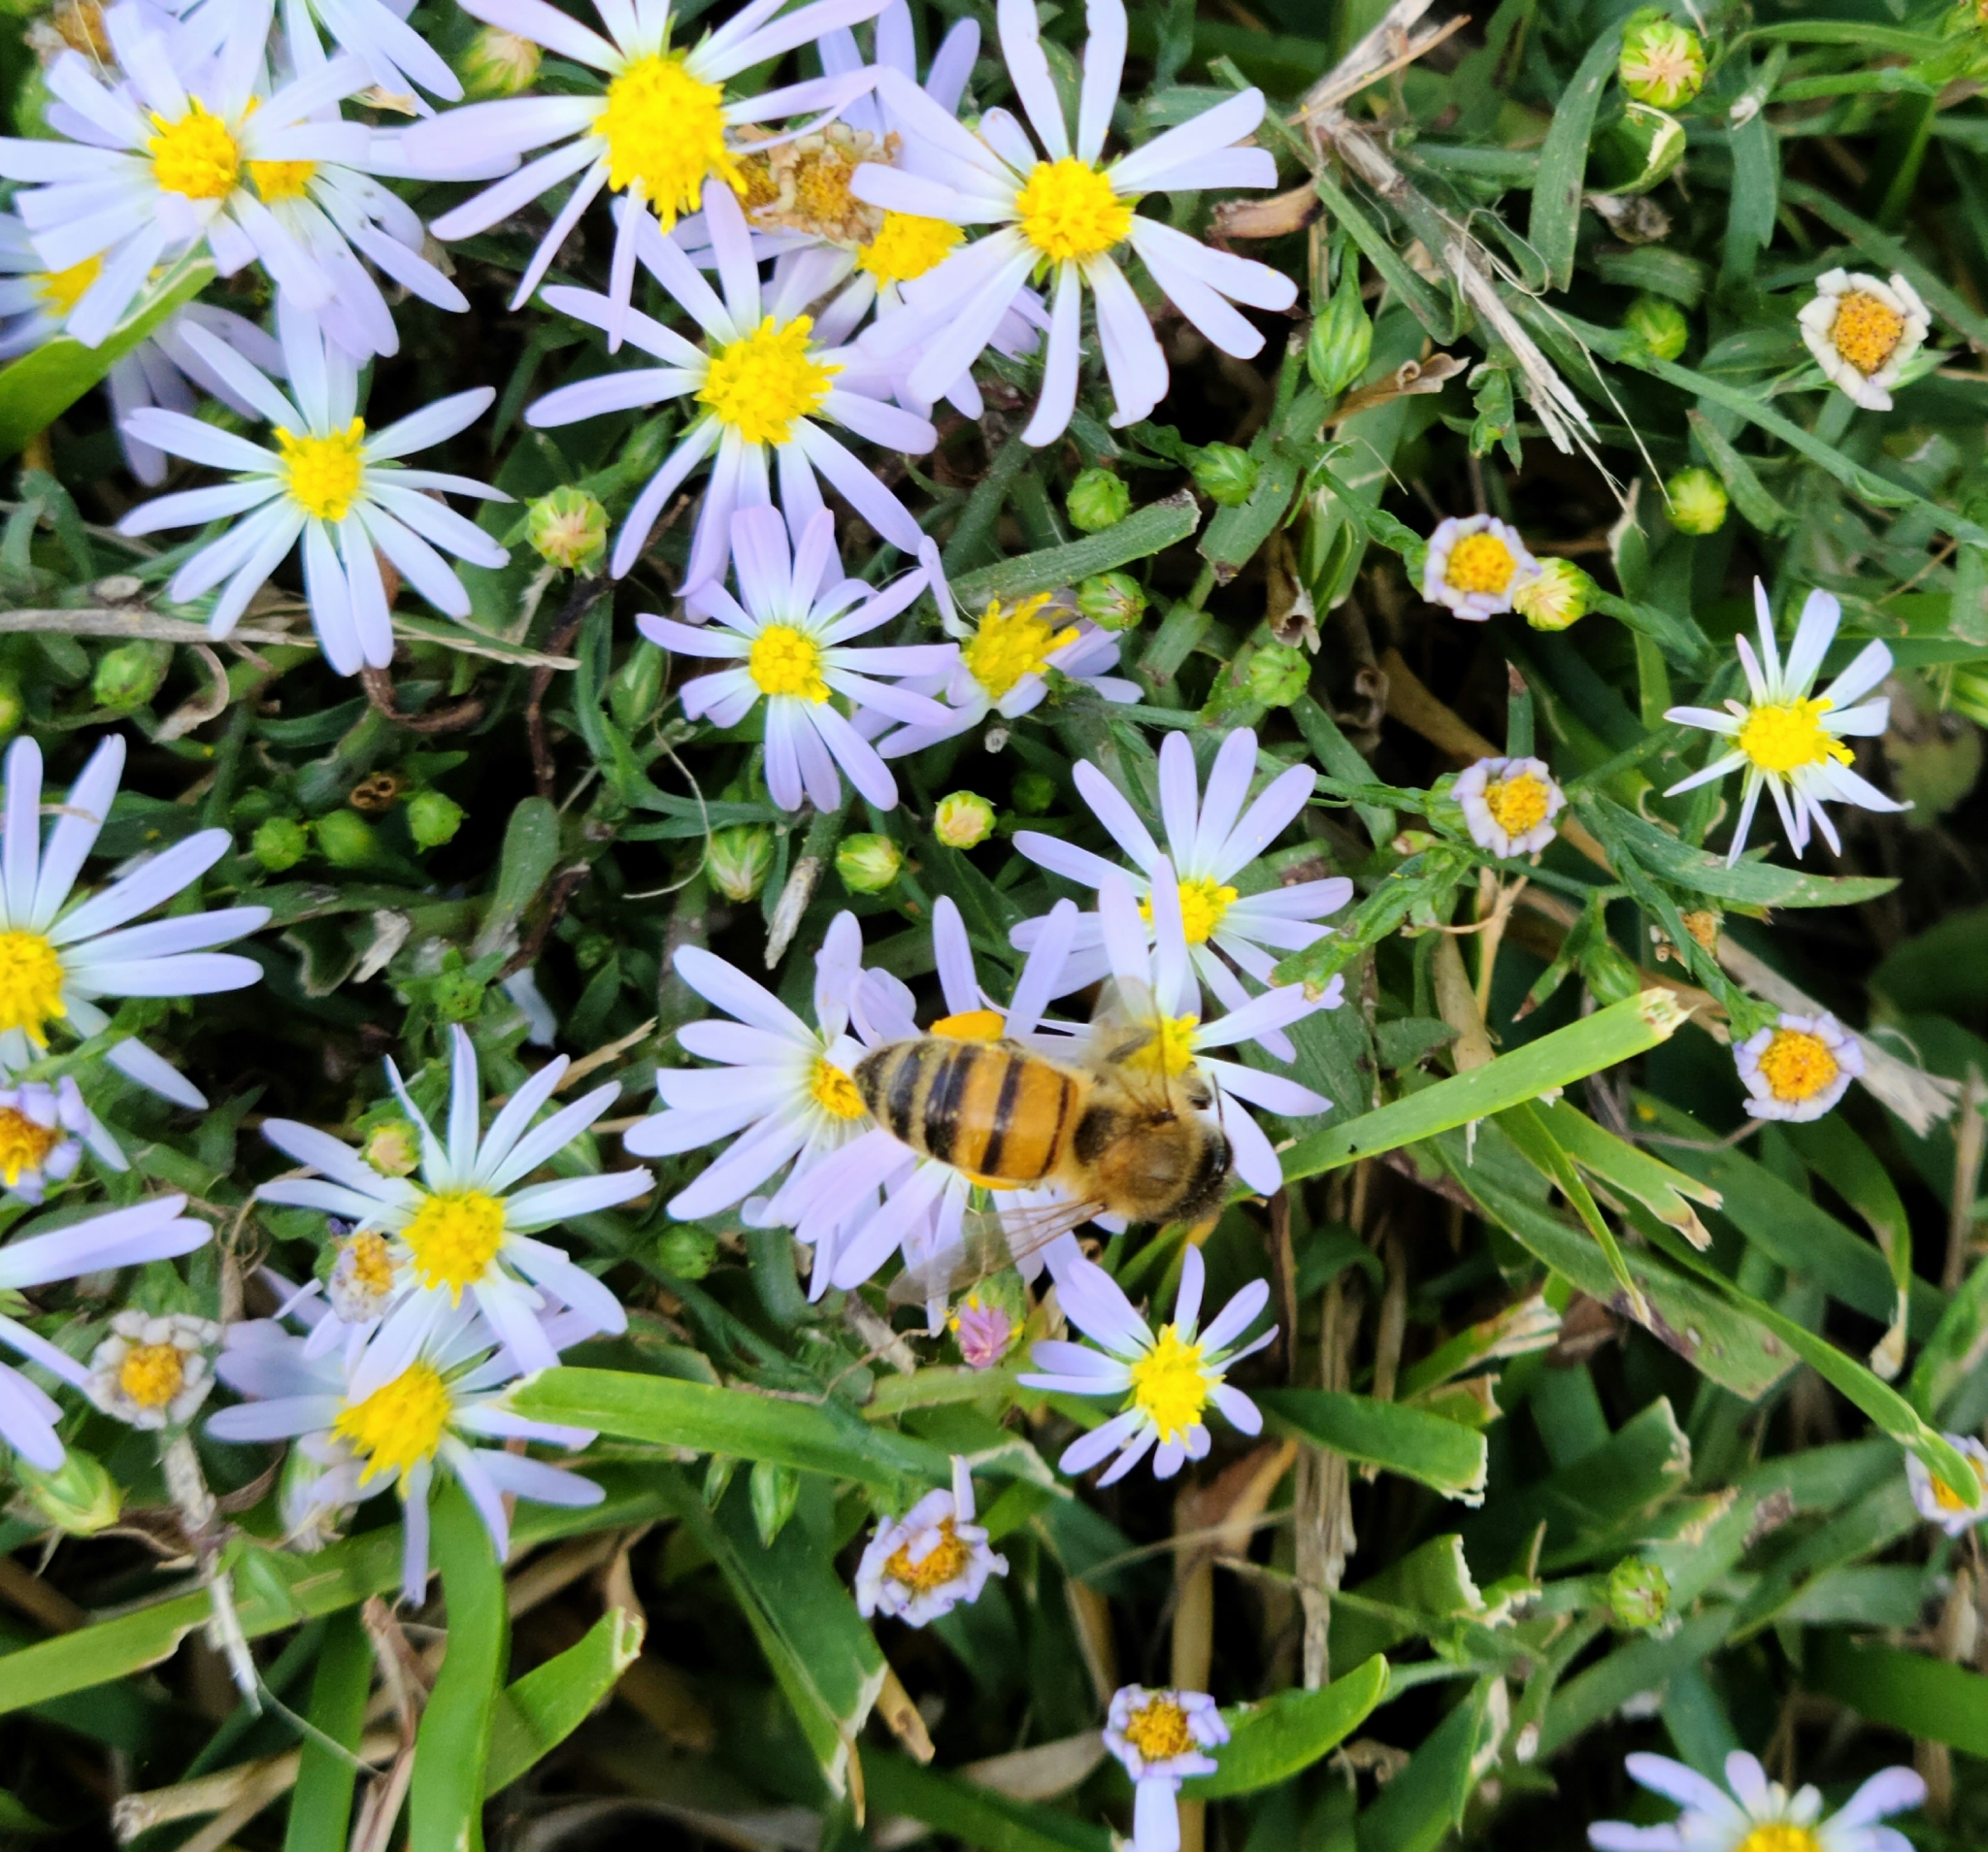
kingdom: Animalia
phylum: Arthropoda
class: Insecta
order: Hymenoptera
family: Apidae
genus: Apis
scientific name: Apis mellifera
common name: Honey bee
